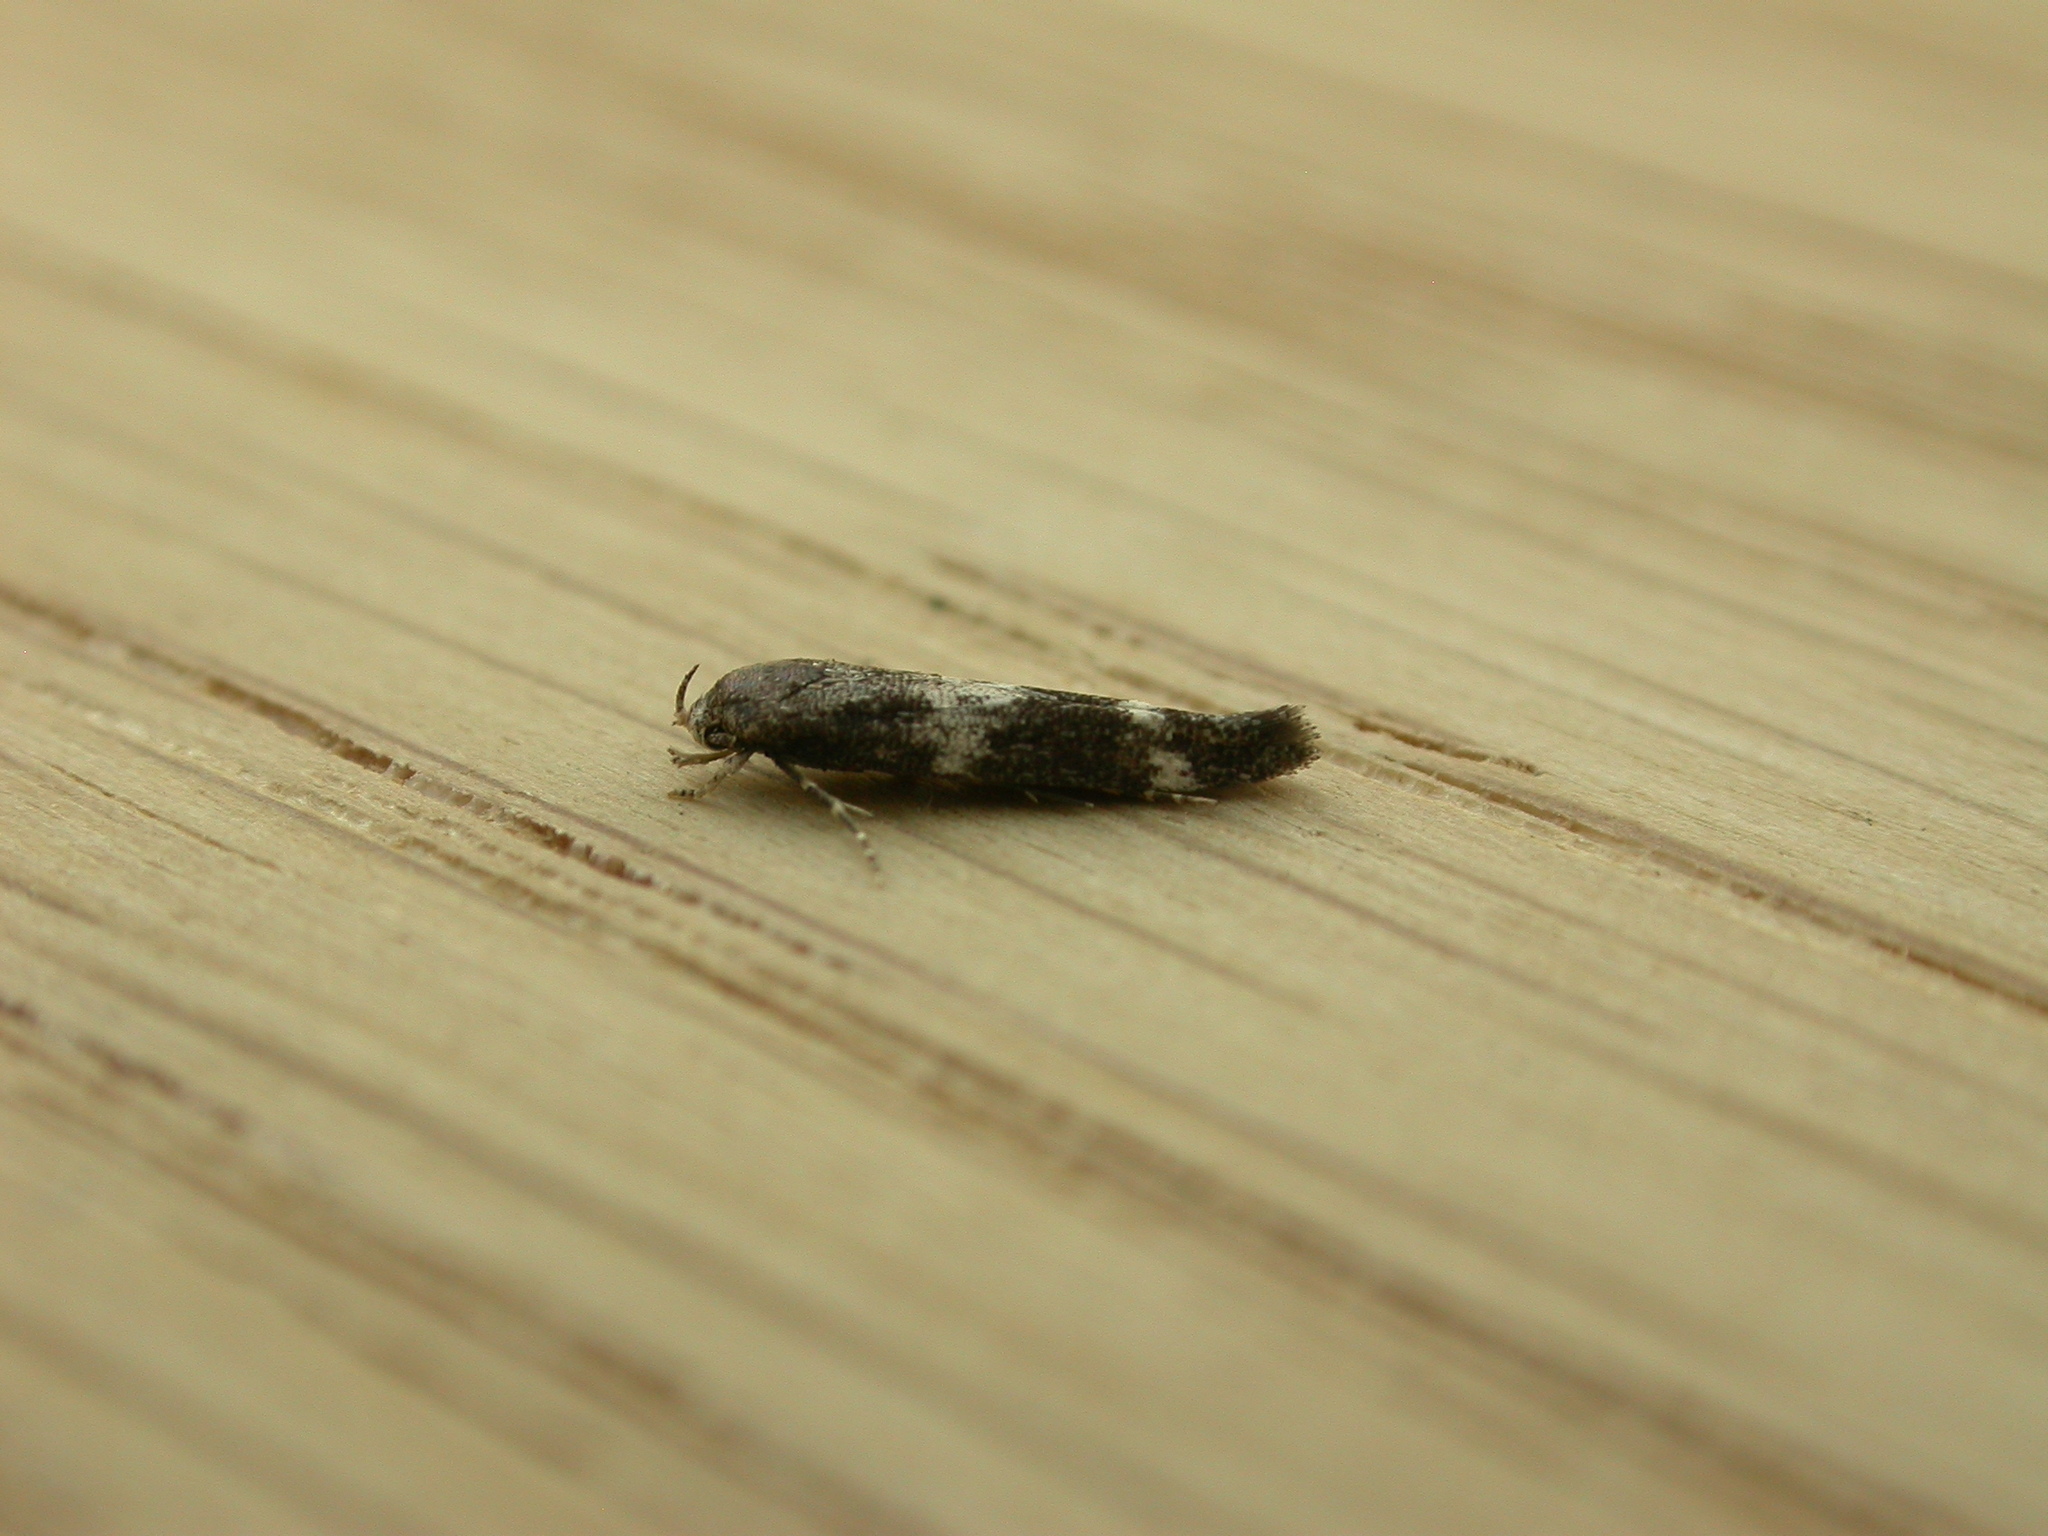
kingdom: Animalia
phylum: Arthropoda
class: Insecta
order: Lepidoptera
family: Momphidae
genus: Mompha
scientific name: Mompha subbistrigella
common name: Garden cosmet
